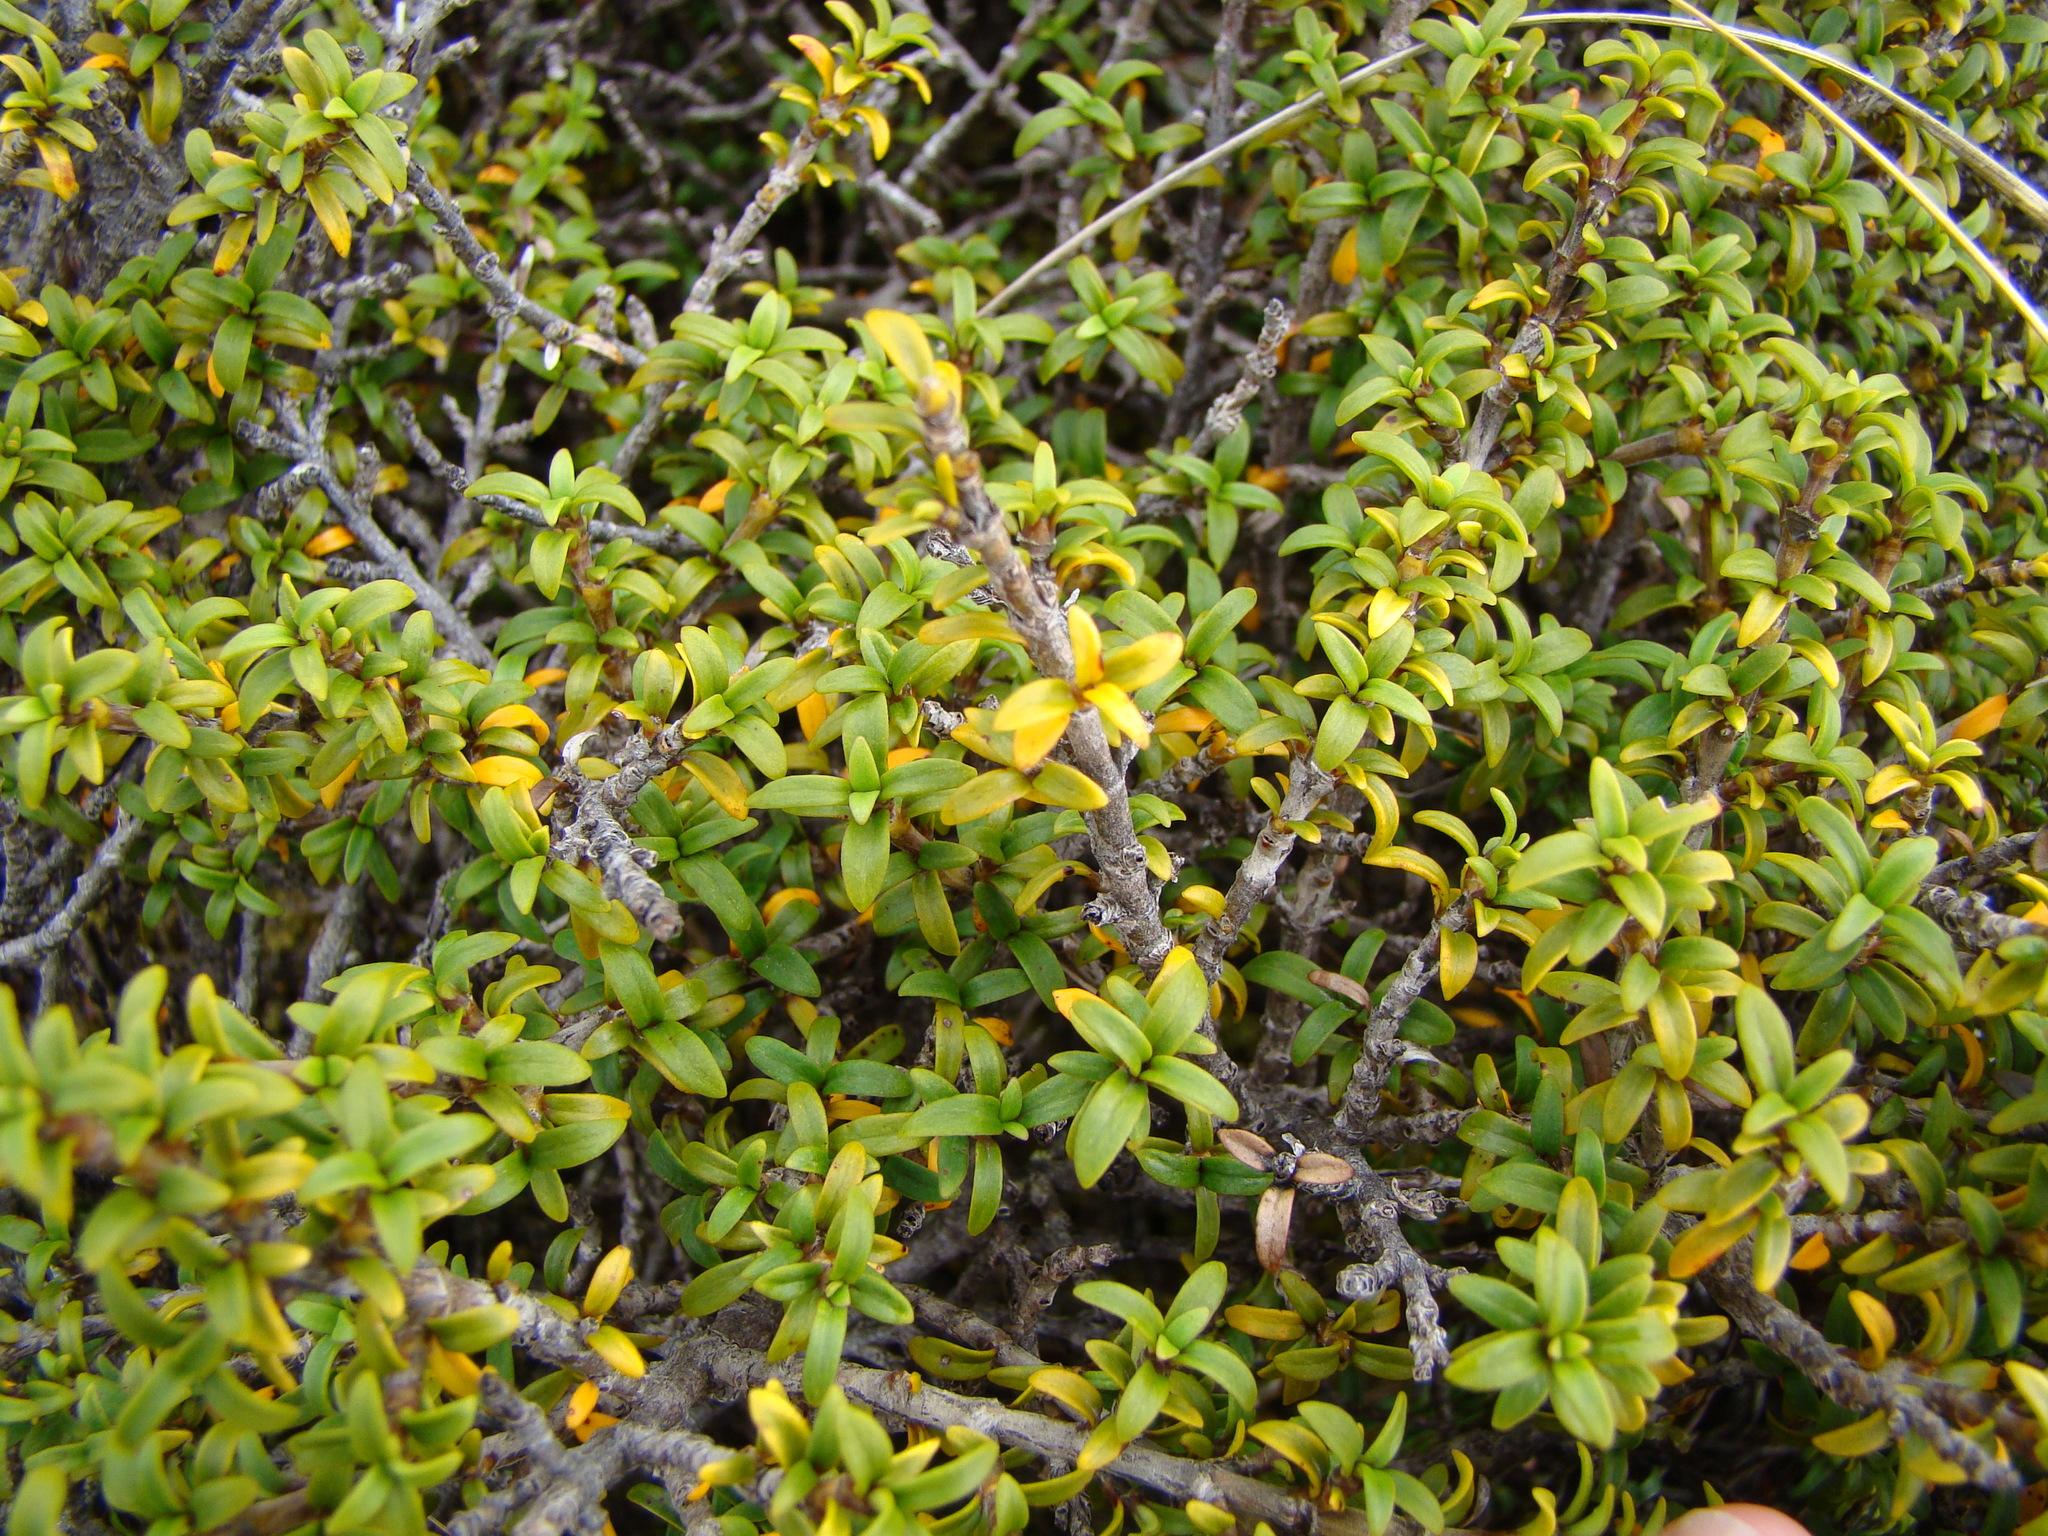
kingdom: Plantae
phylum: Tracheophyta
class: Magnoliopsida
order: Gentianales
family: Rubiaceae
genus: Coprosma
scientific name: Coprosma pseudocuneata
